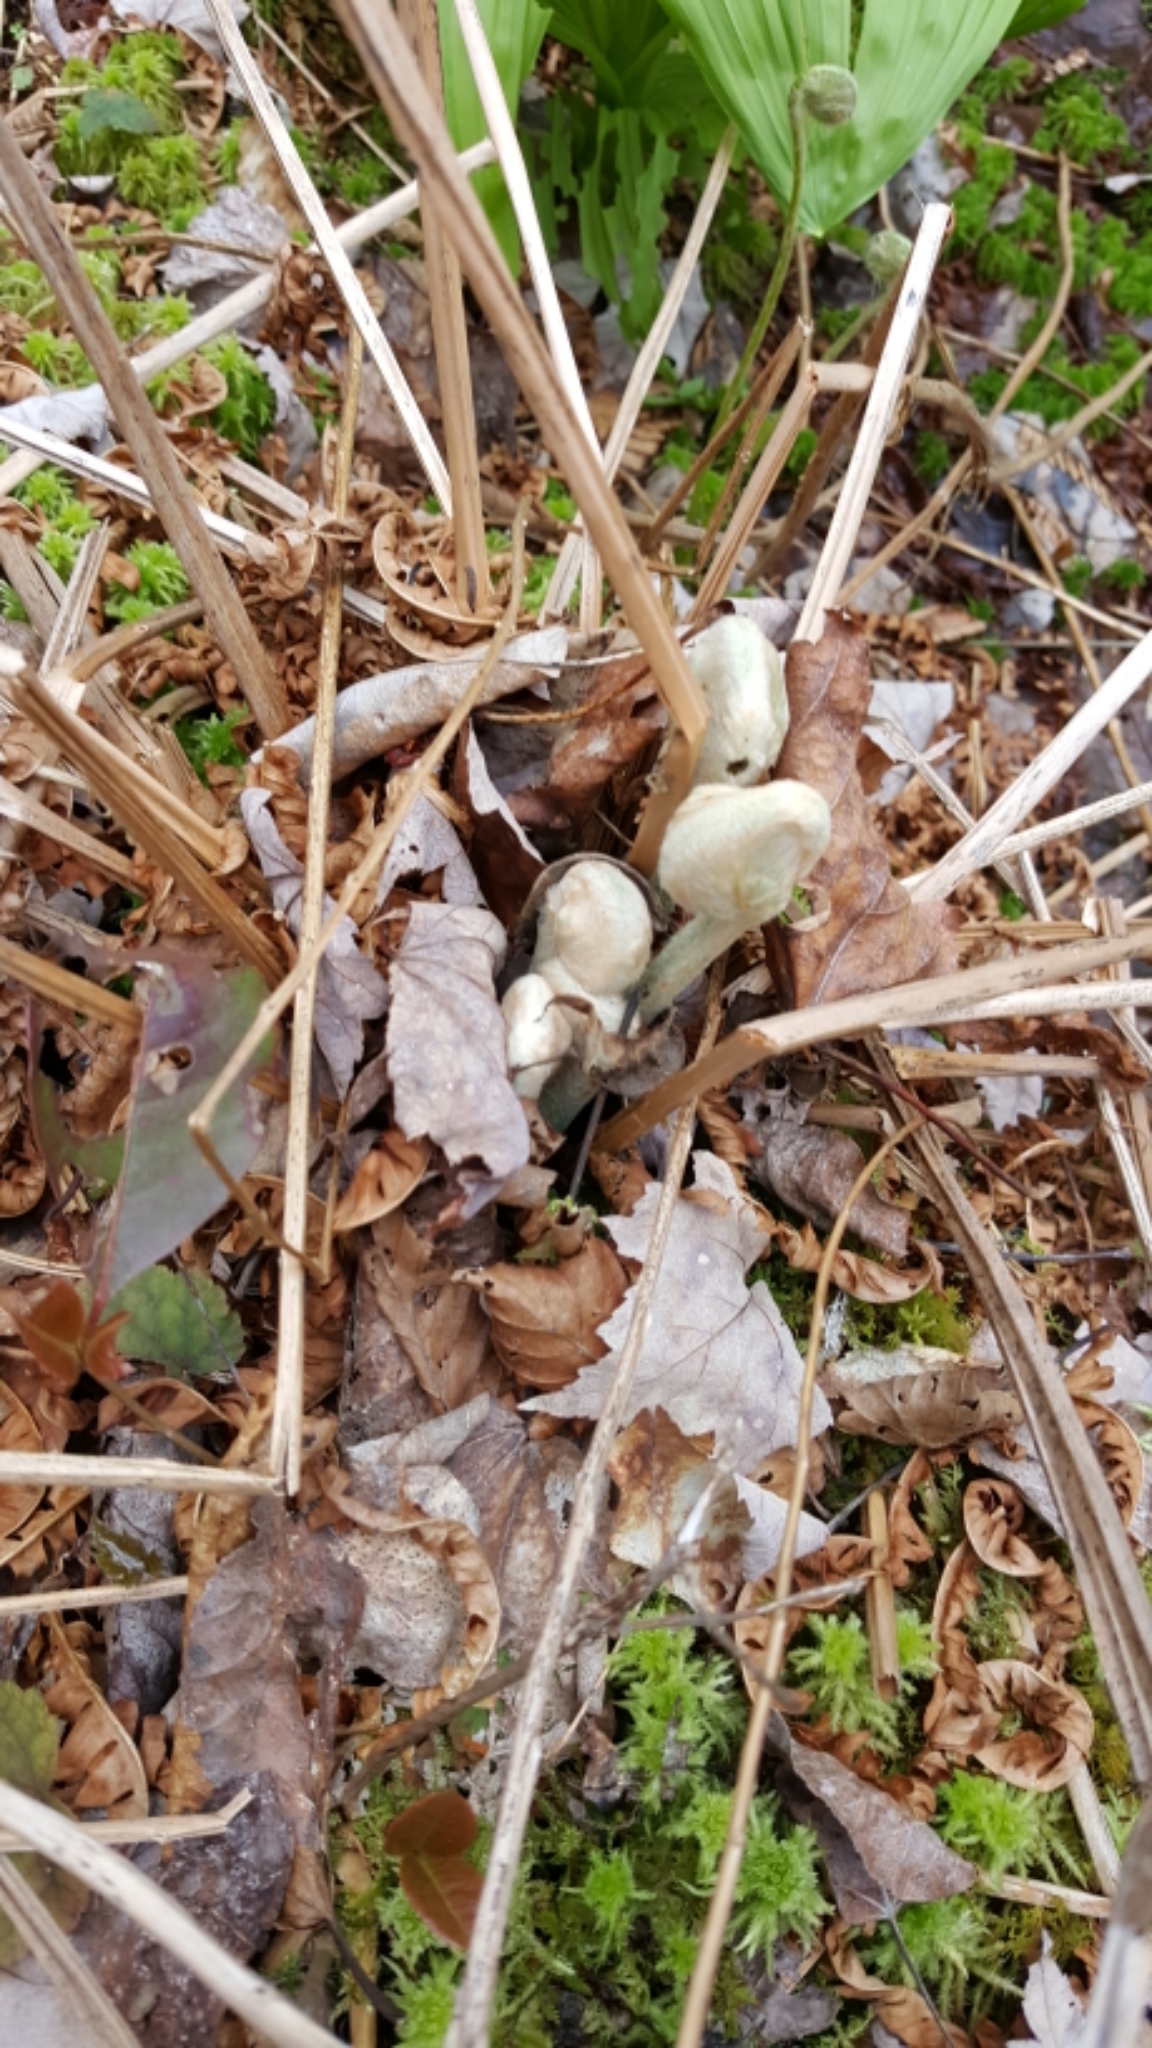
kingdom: Plantae
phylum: Tracheophyta
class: Polypodiopsida
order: Osmundales
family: Osmundaceae
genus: Osmundastrum
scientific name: Osmundastrum cinnamomeum
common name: Cinnamon fern
